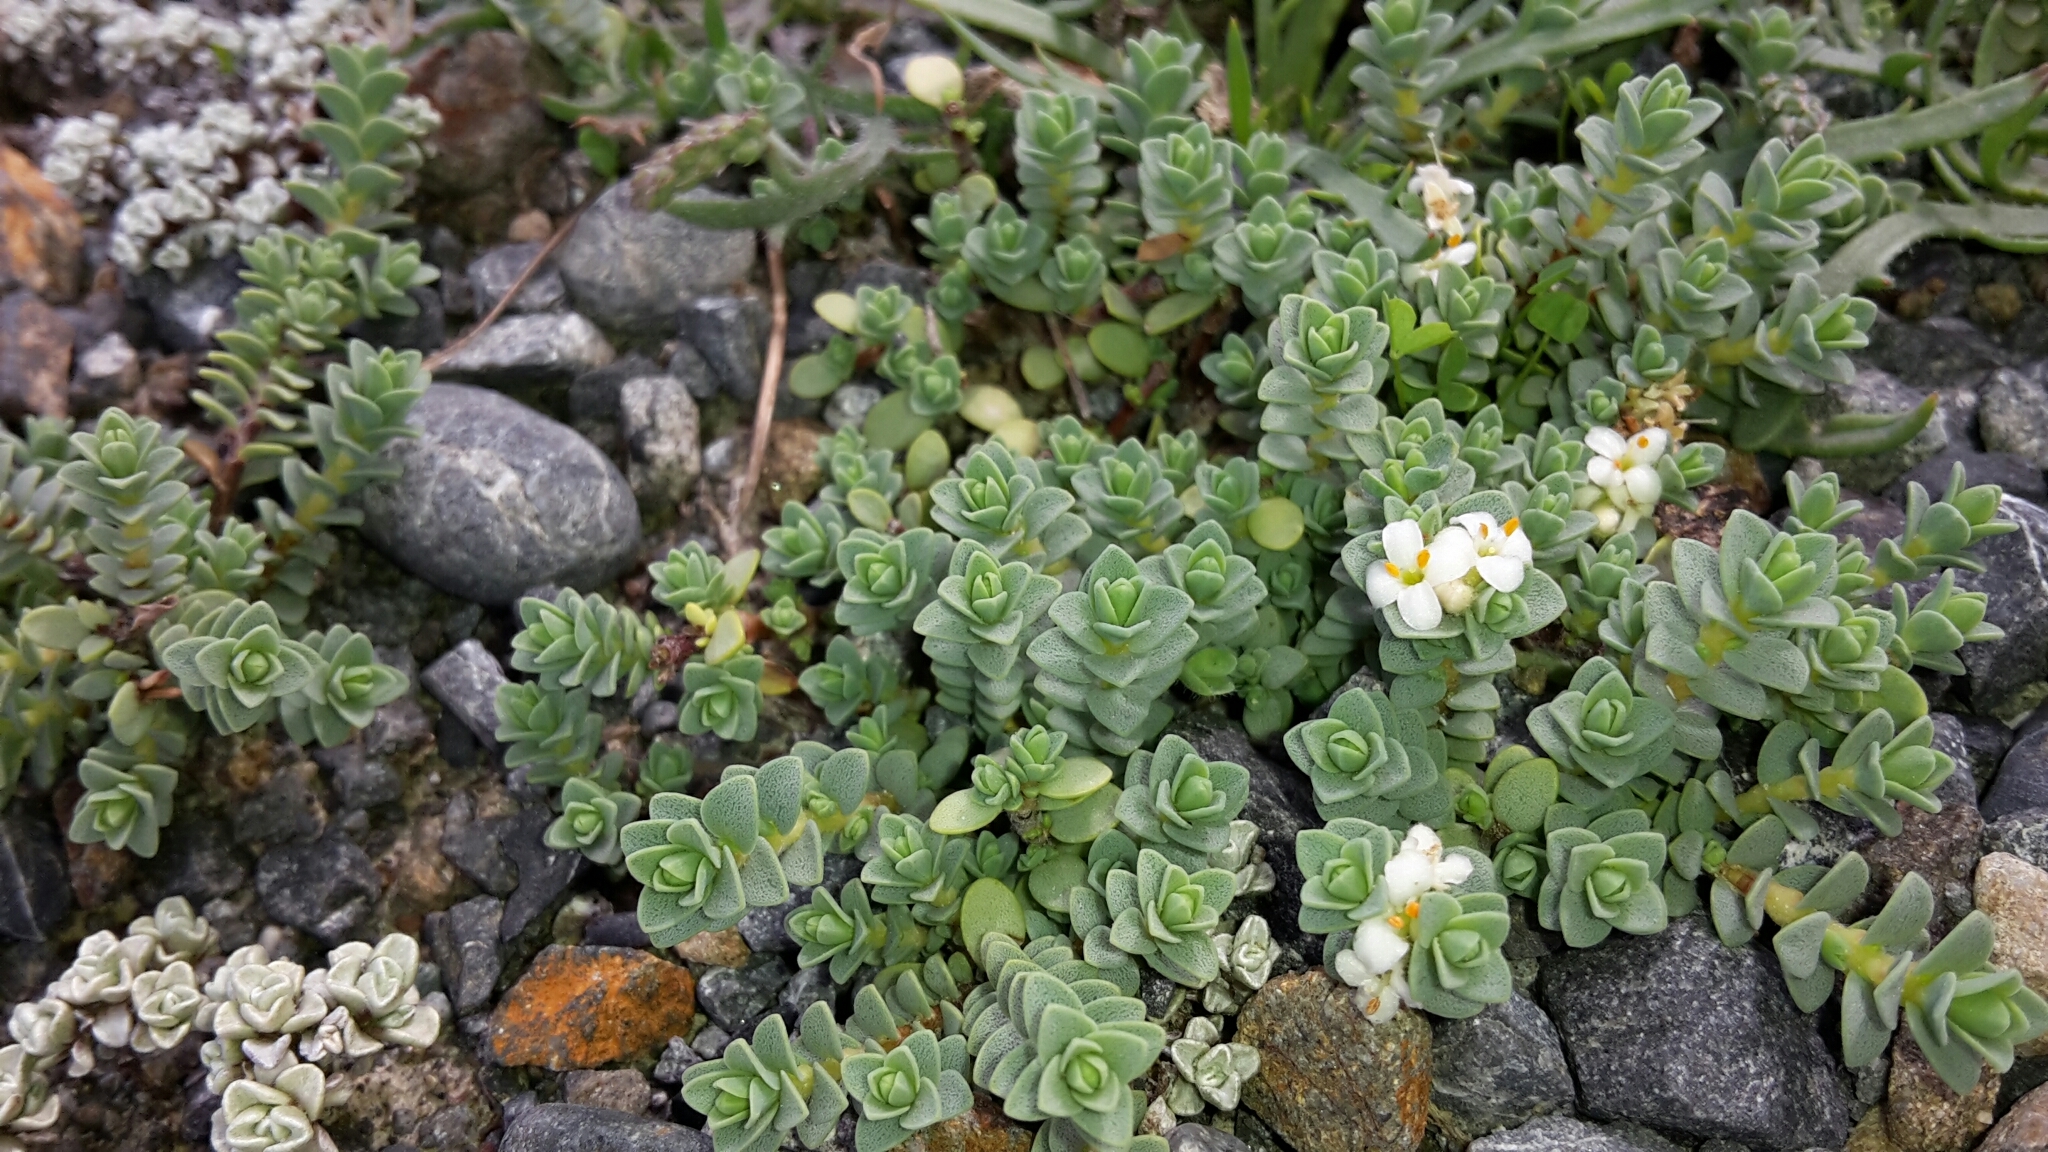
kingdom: Plantae
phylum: Tracheophyta
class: Magnoliopsida
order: Malvales
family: Thymelaeaceae
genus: Pimelea
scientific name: Pimelea prostrata
